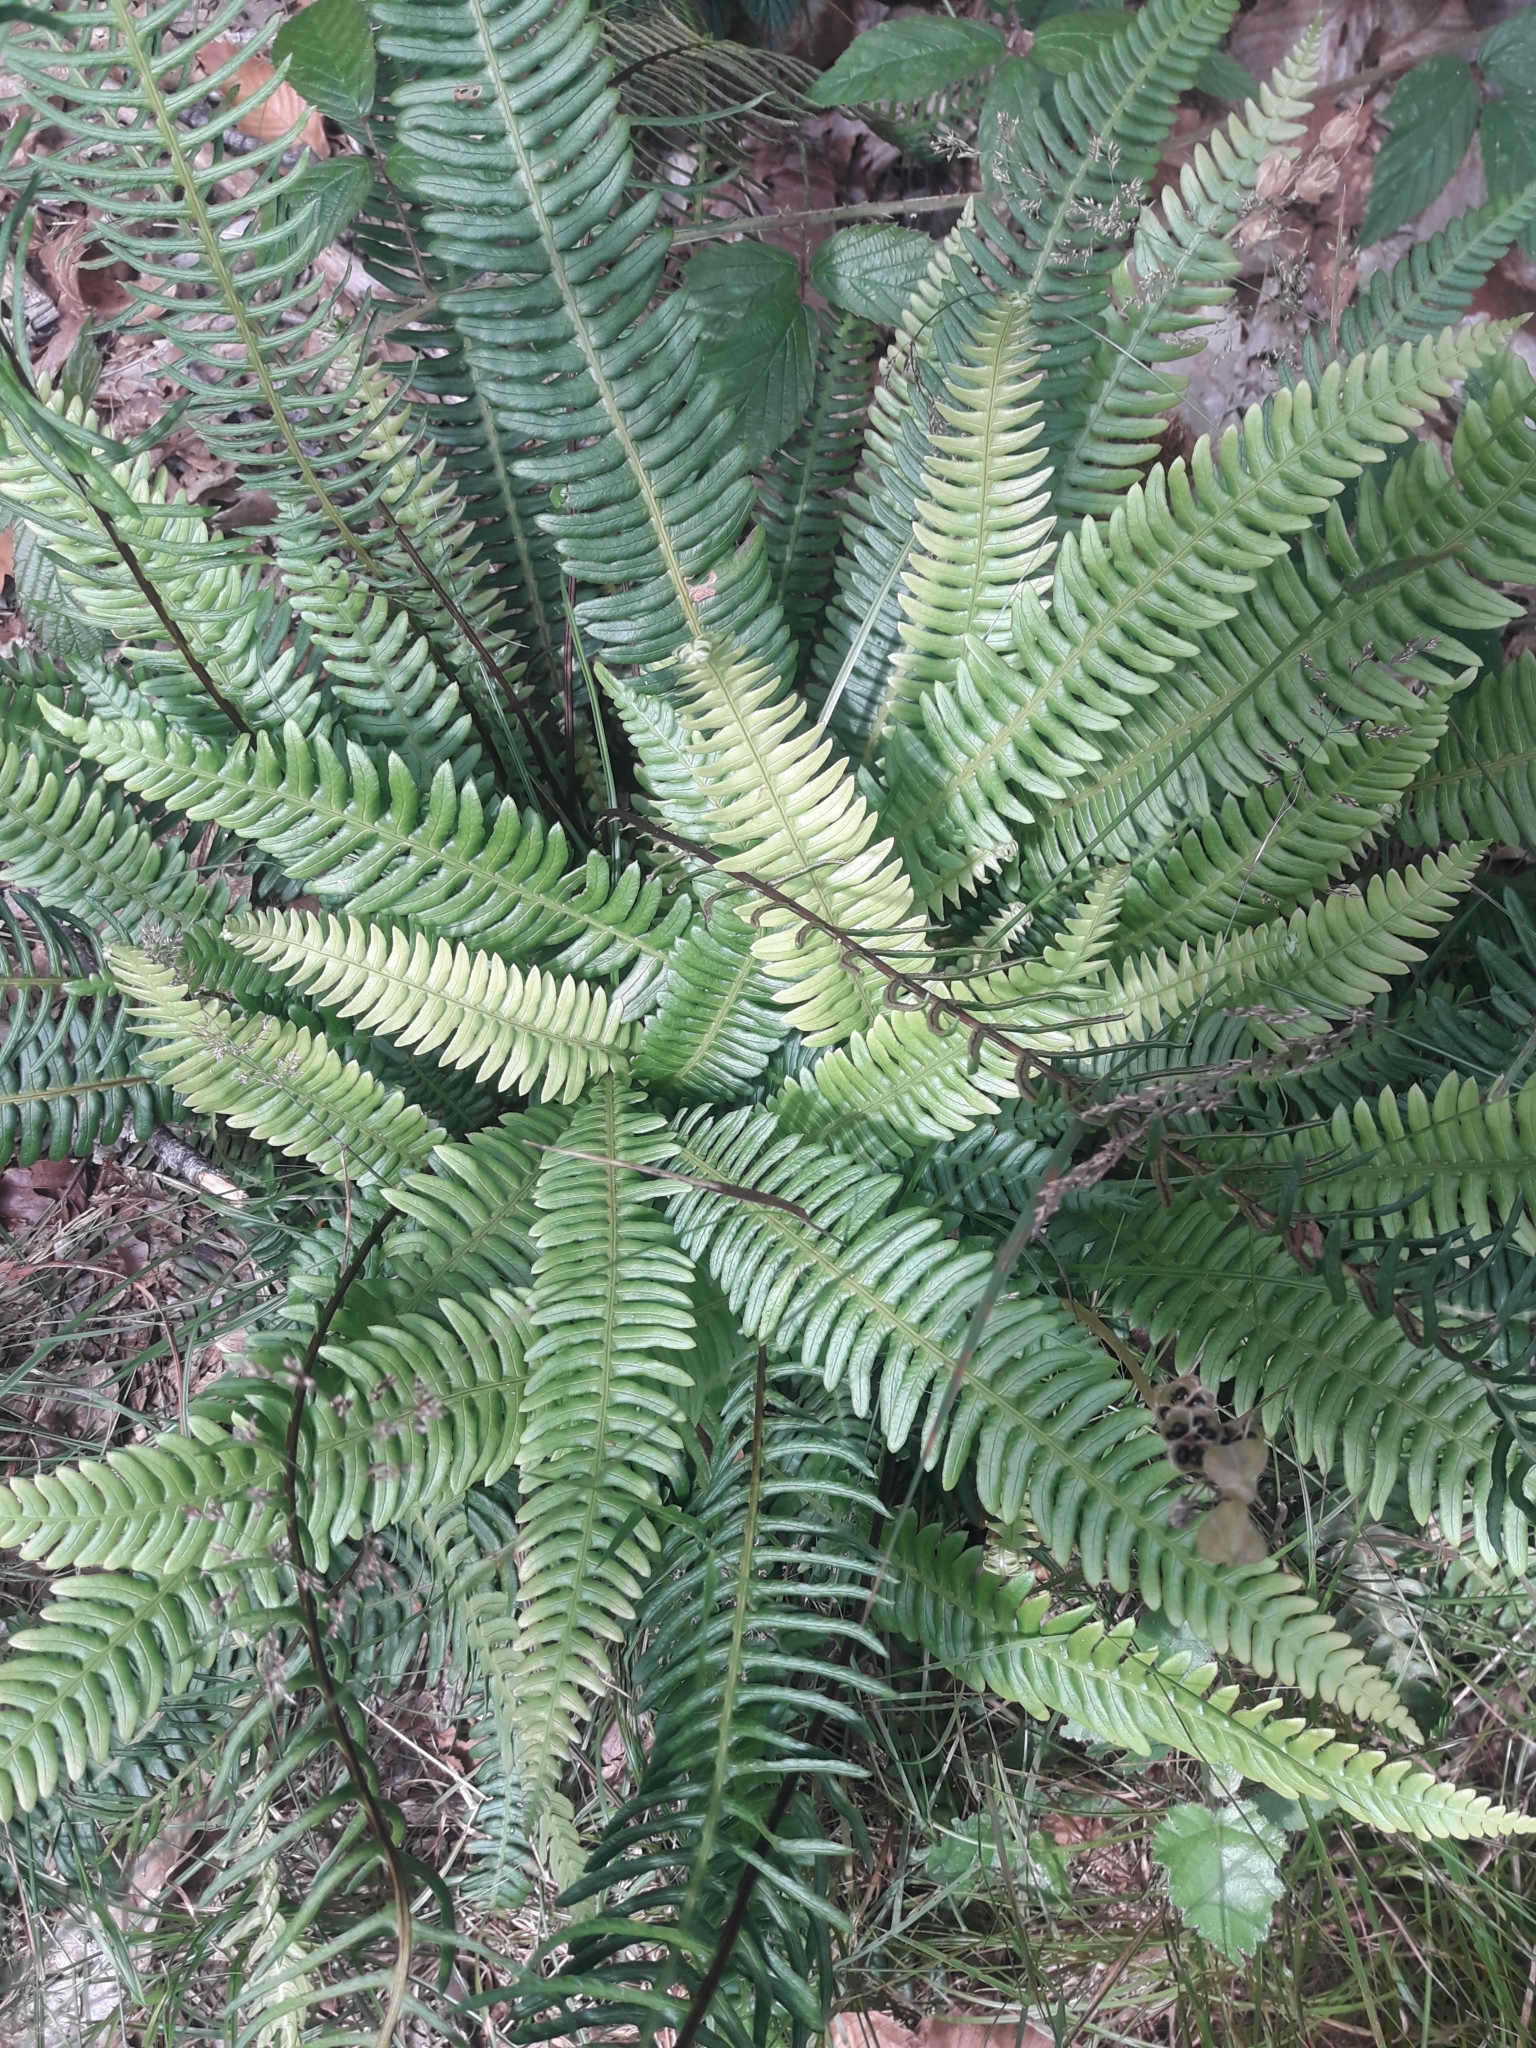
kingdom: Plantae
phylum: Tracheophyta
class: Polypodiopsida
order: Polypodiales
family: Blechnaceae
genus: Struthiopteris
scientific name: Struthiopteris spicant
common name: Deer fern
